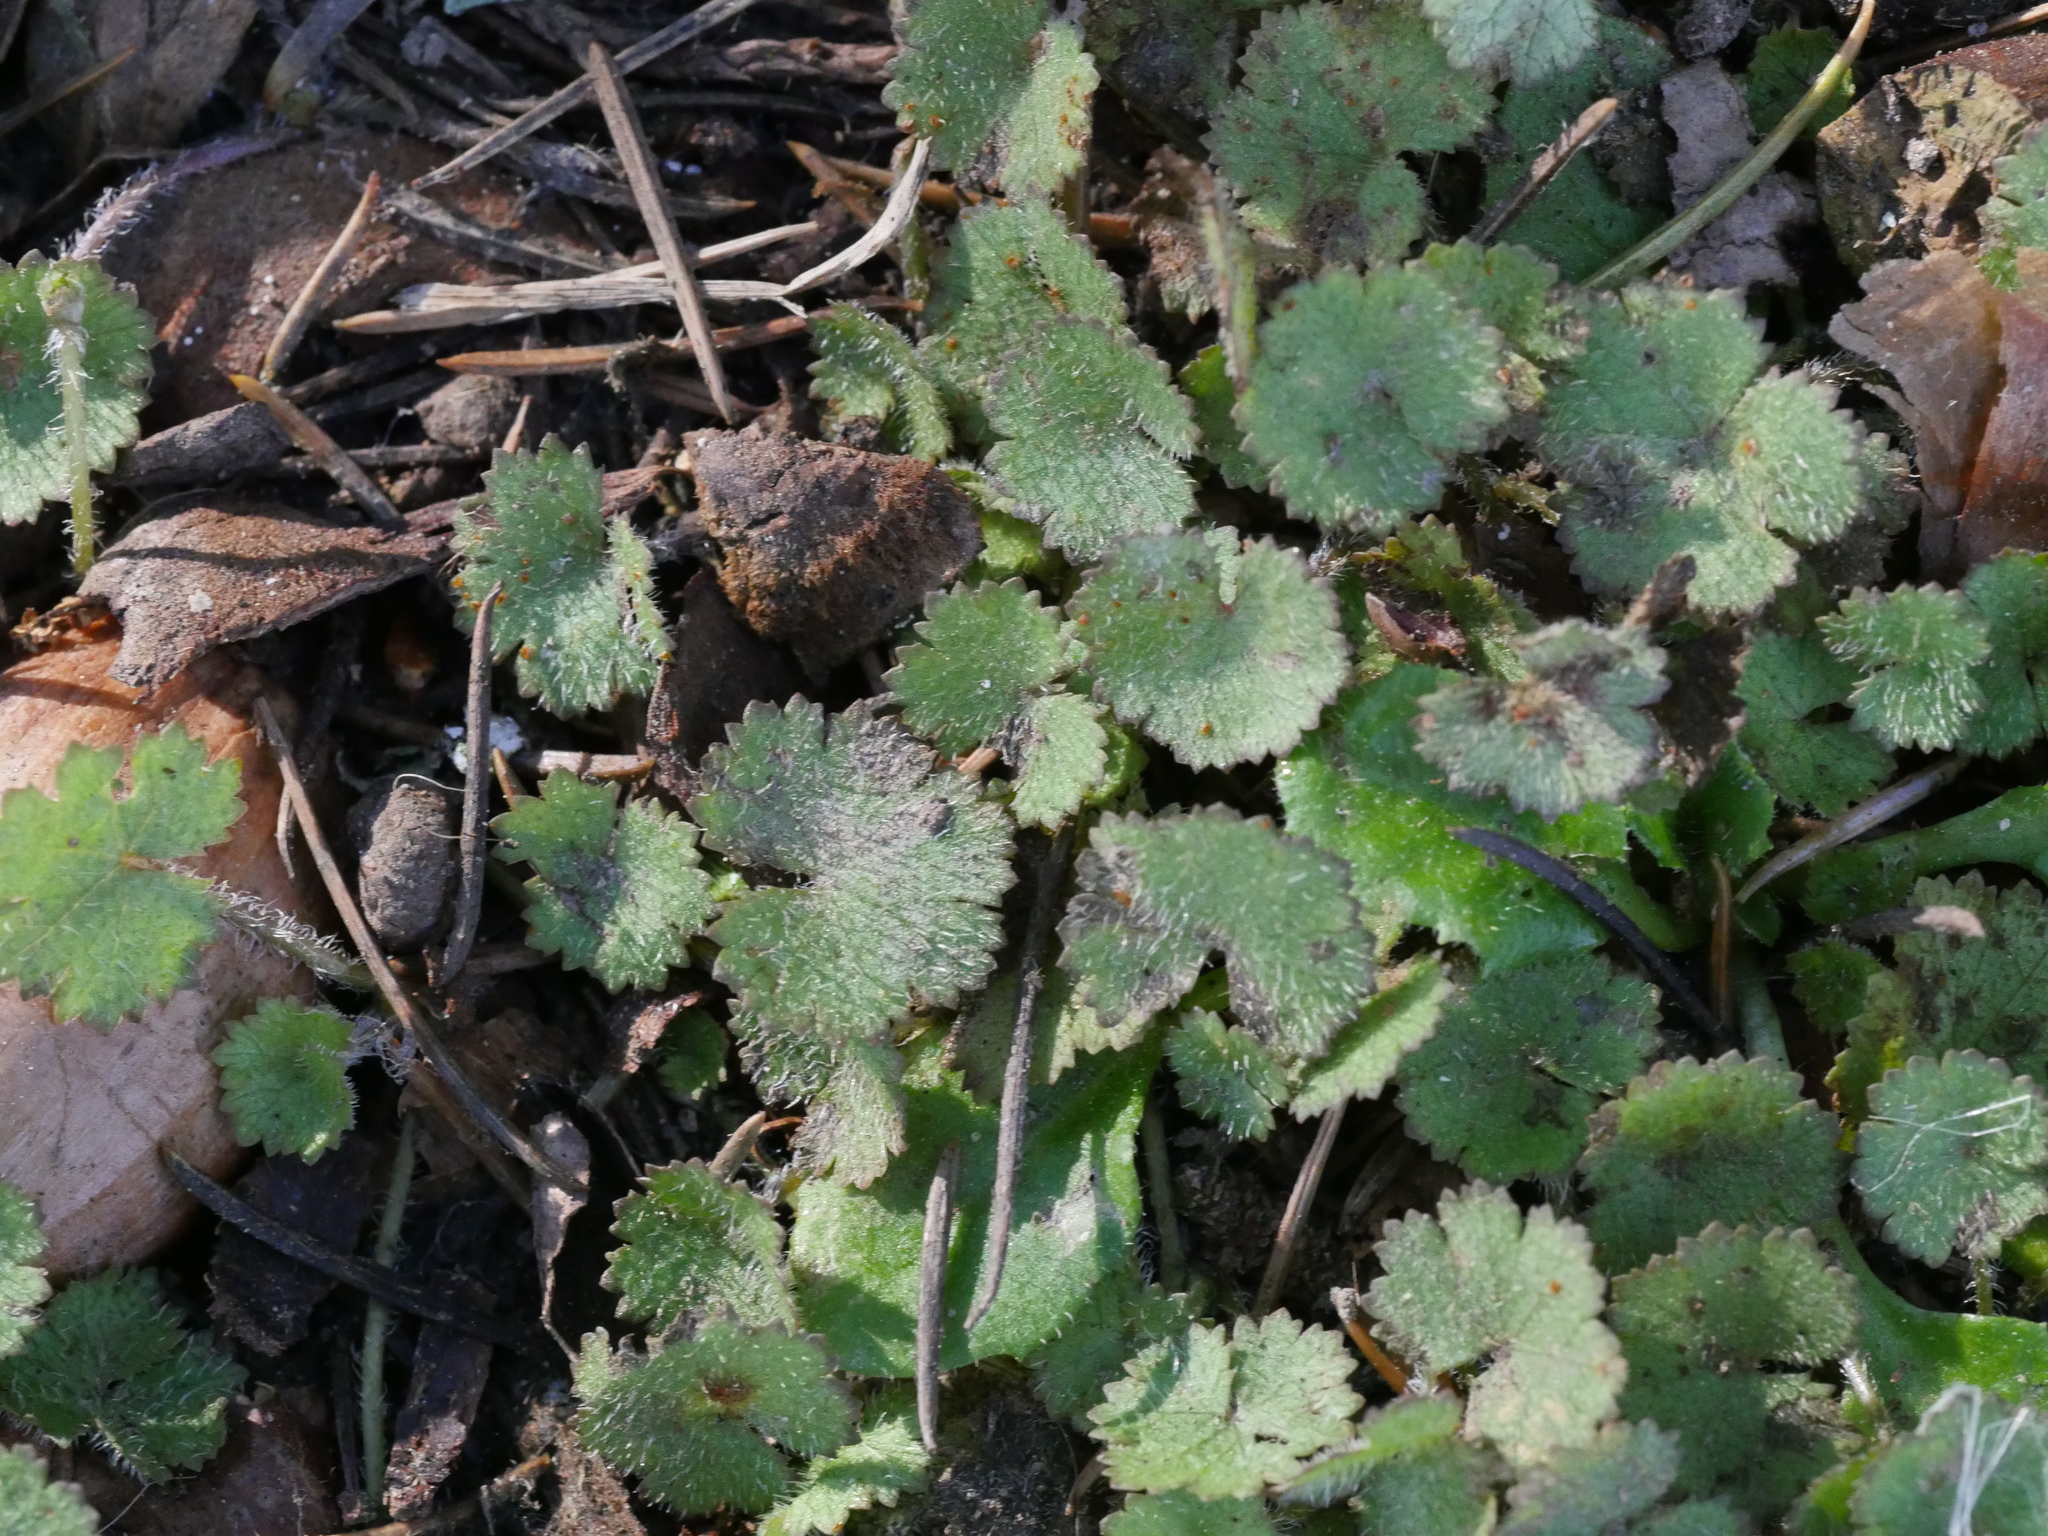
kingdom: Plantae
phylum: Tracheophyta
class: Magnoliopsida
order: Apiales
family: Araliaceae
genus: Hydrocotyle
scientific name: Hydrocotyle moschata
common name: Hairy pennywort
